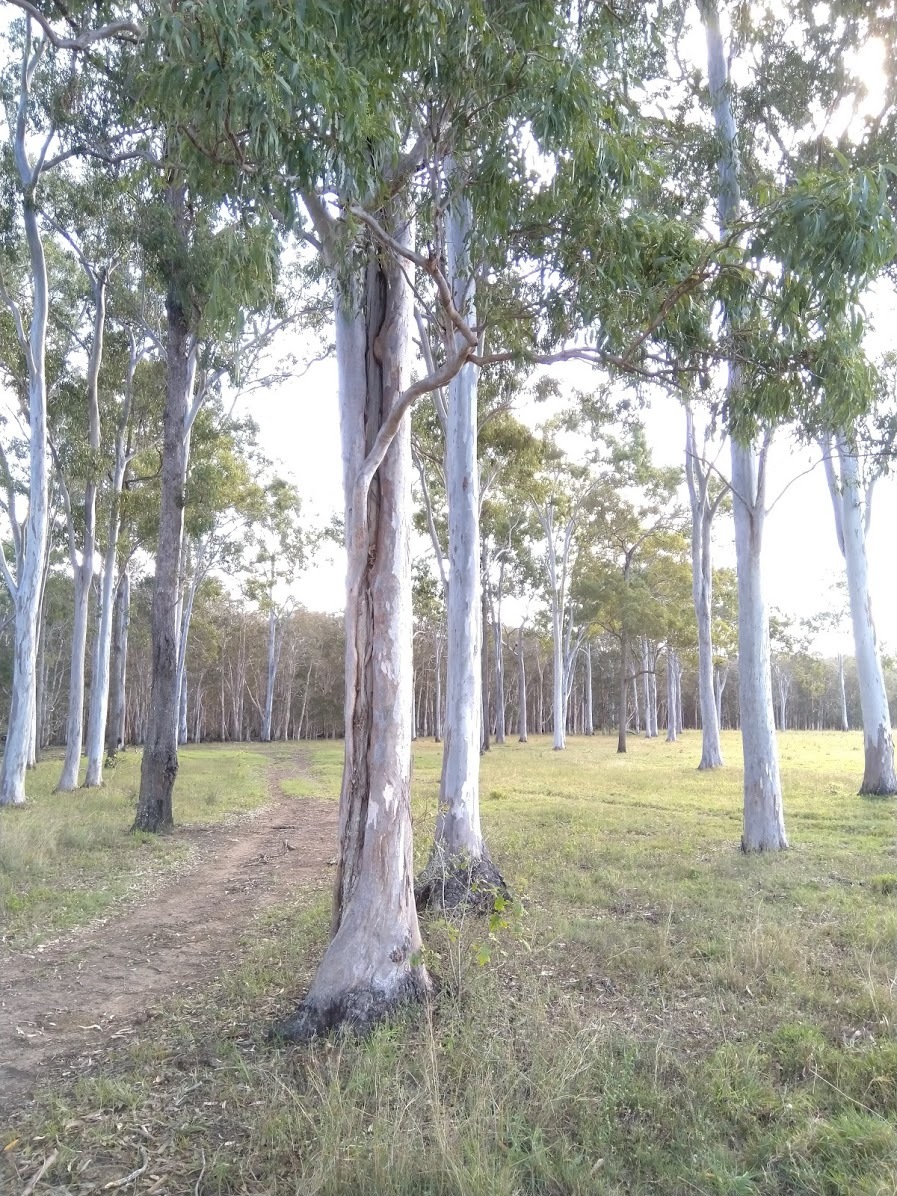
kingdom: Plantae
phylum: Tracheophyta
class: Magnoliopsida
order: Myrtales
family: Myrtaceae
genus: Eucalyptus
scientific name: Eucalyptus tereticornis
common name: Forest redgum
